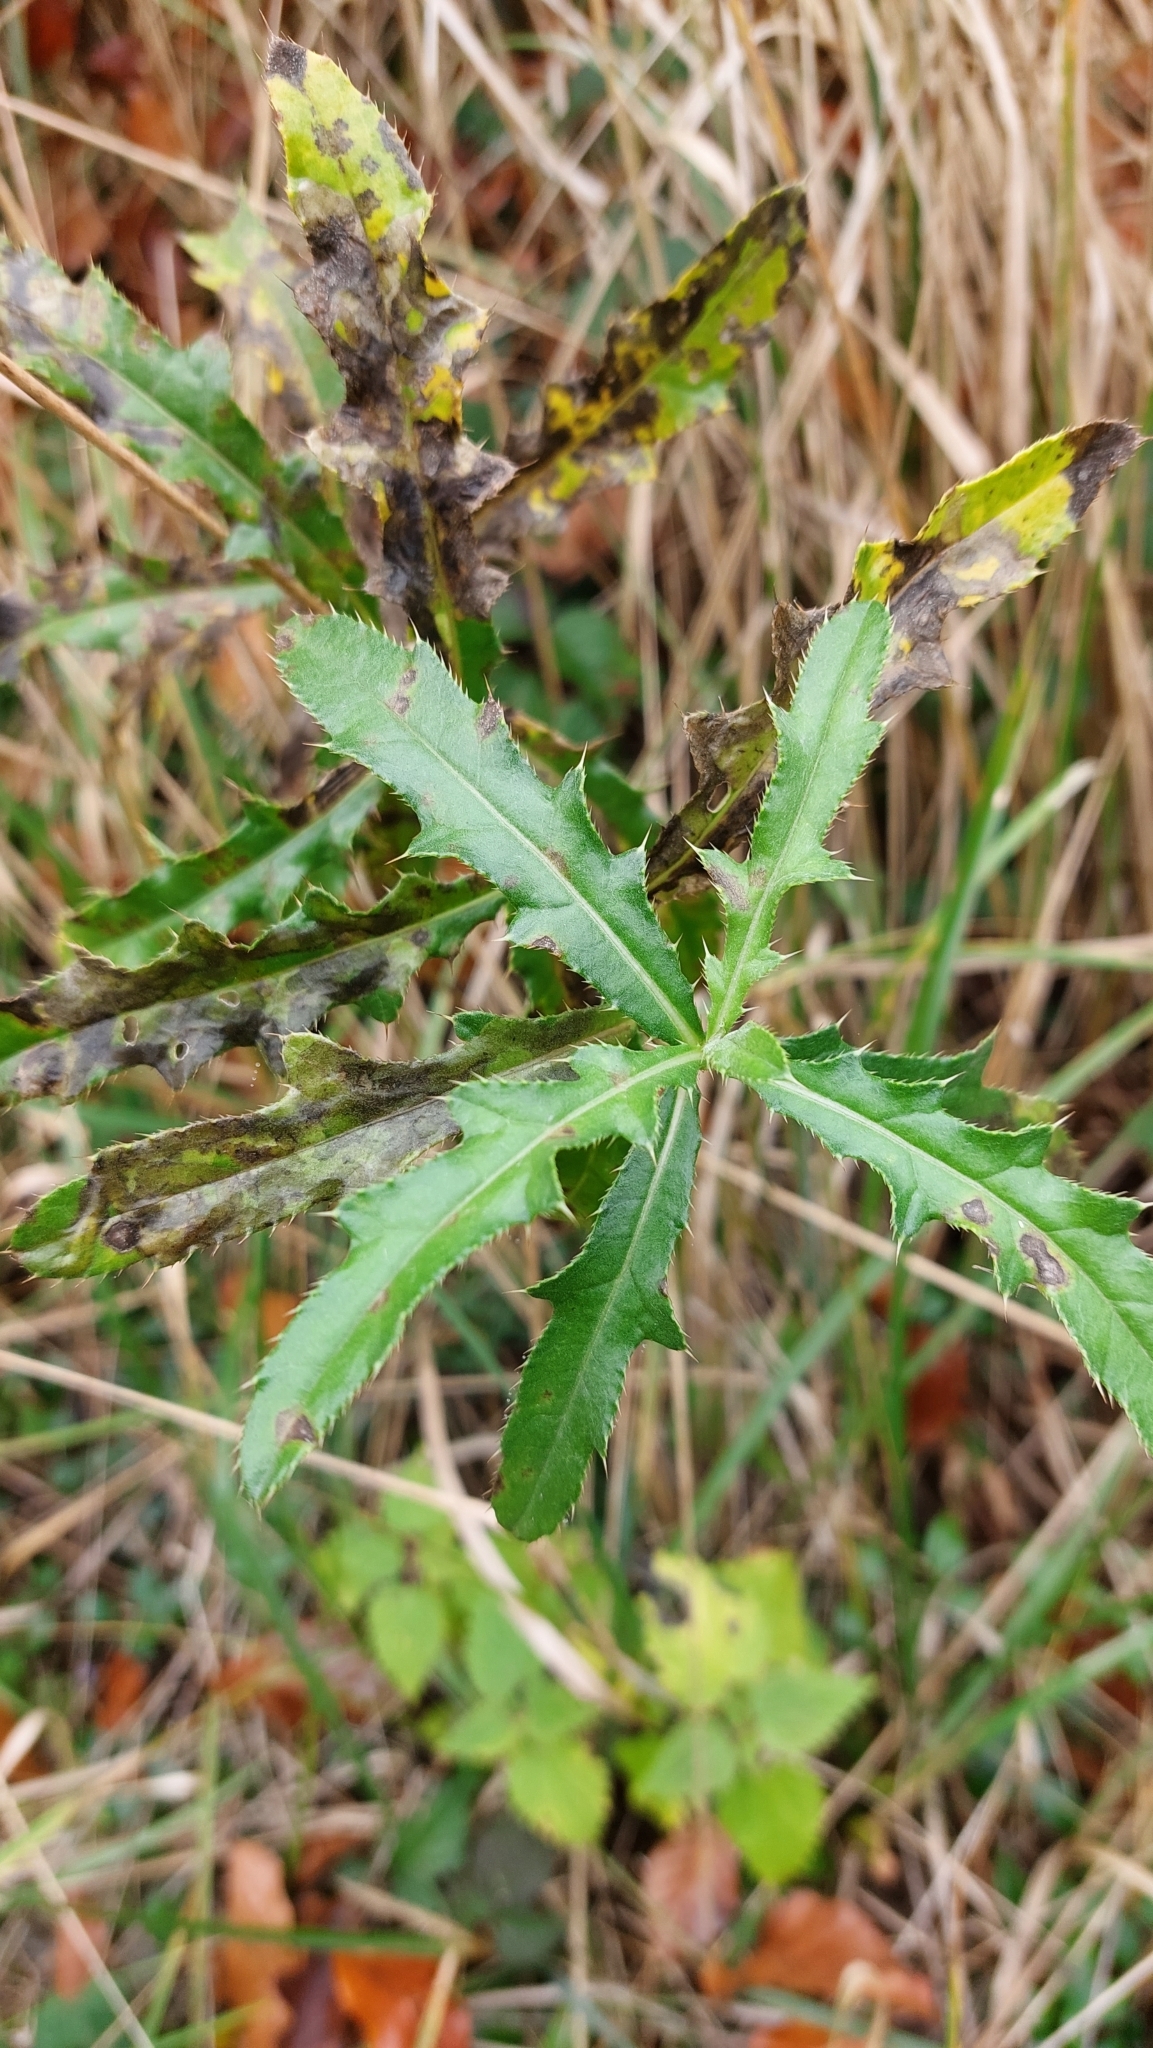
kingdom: Plantae
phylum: Tracheophyta
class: Magnoliopsida
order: Asterales
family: Asteraceae
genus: Cirsium
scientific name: Cirsium arvense
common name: Creeping thistle
